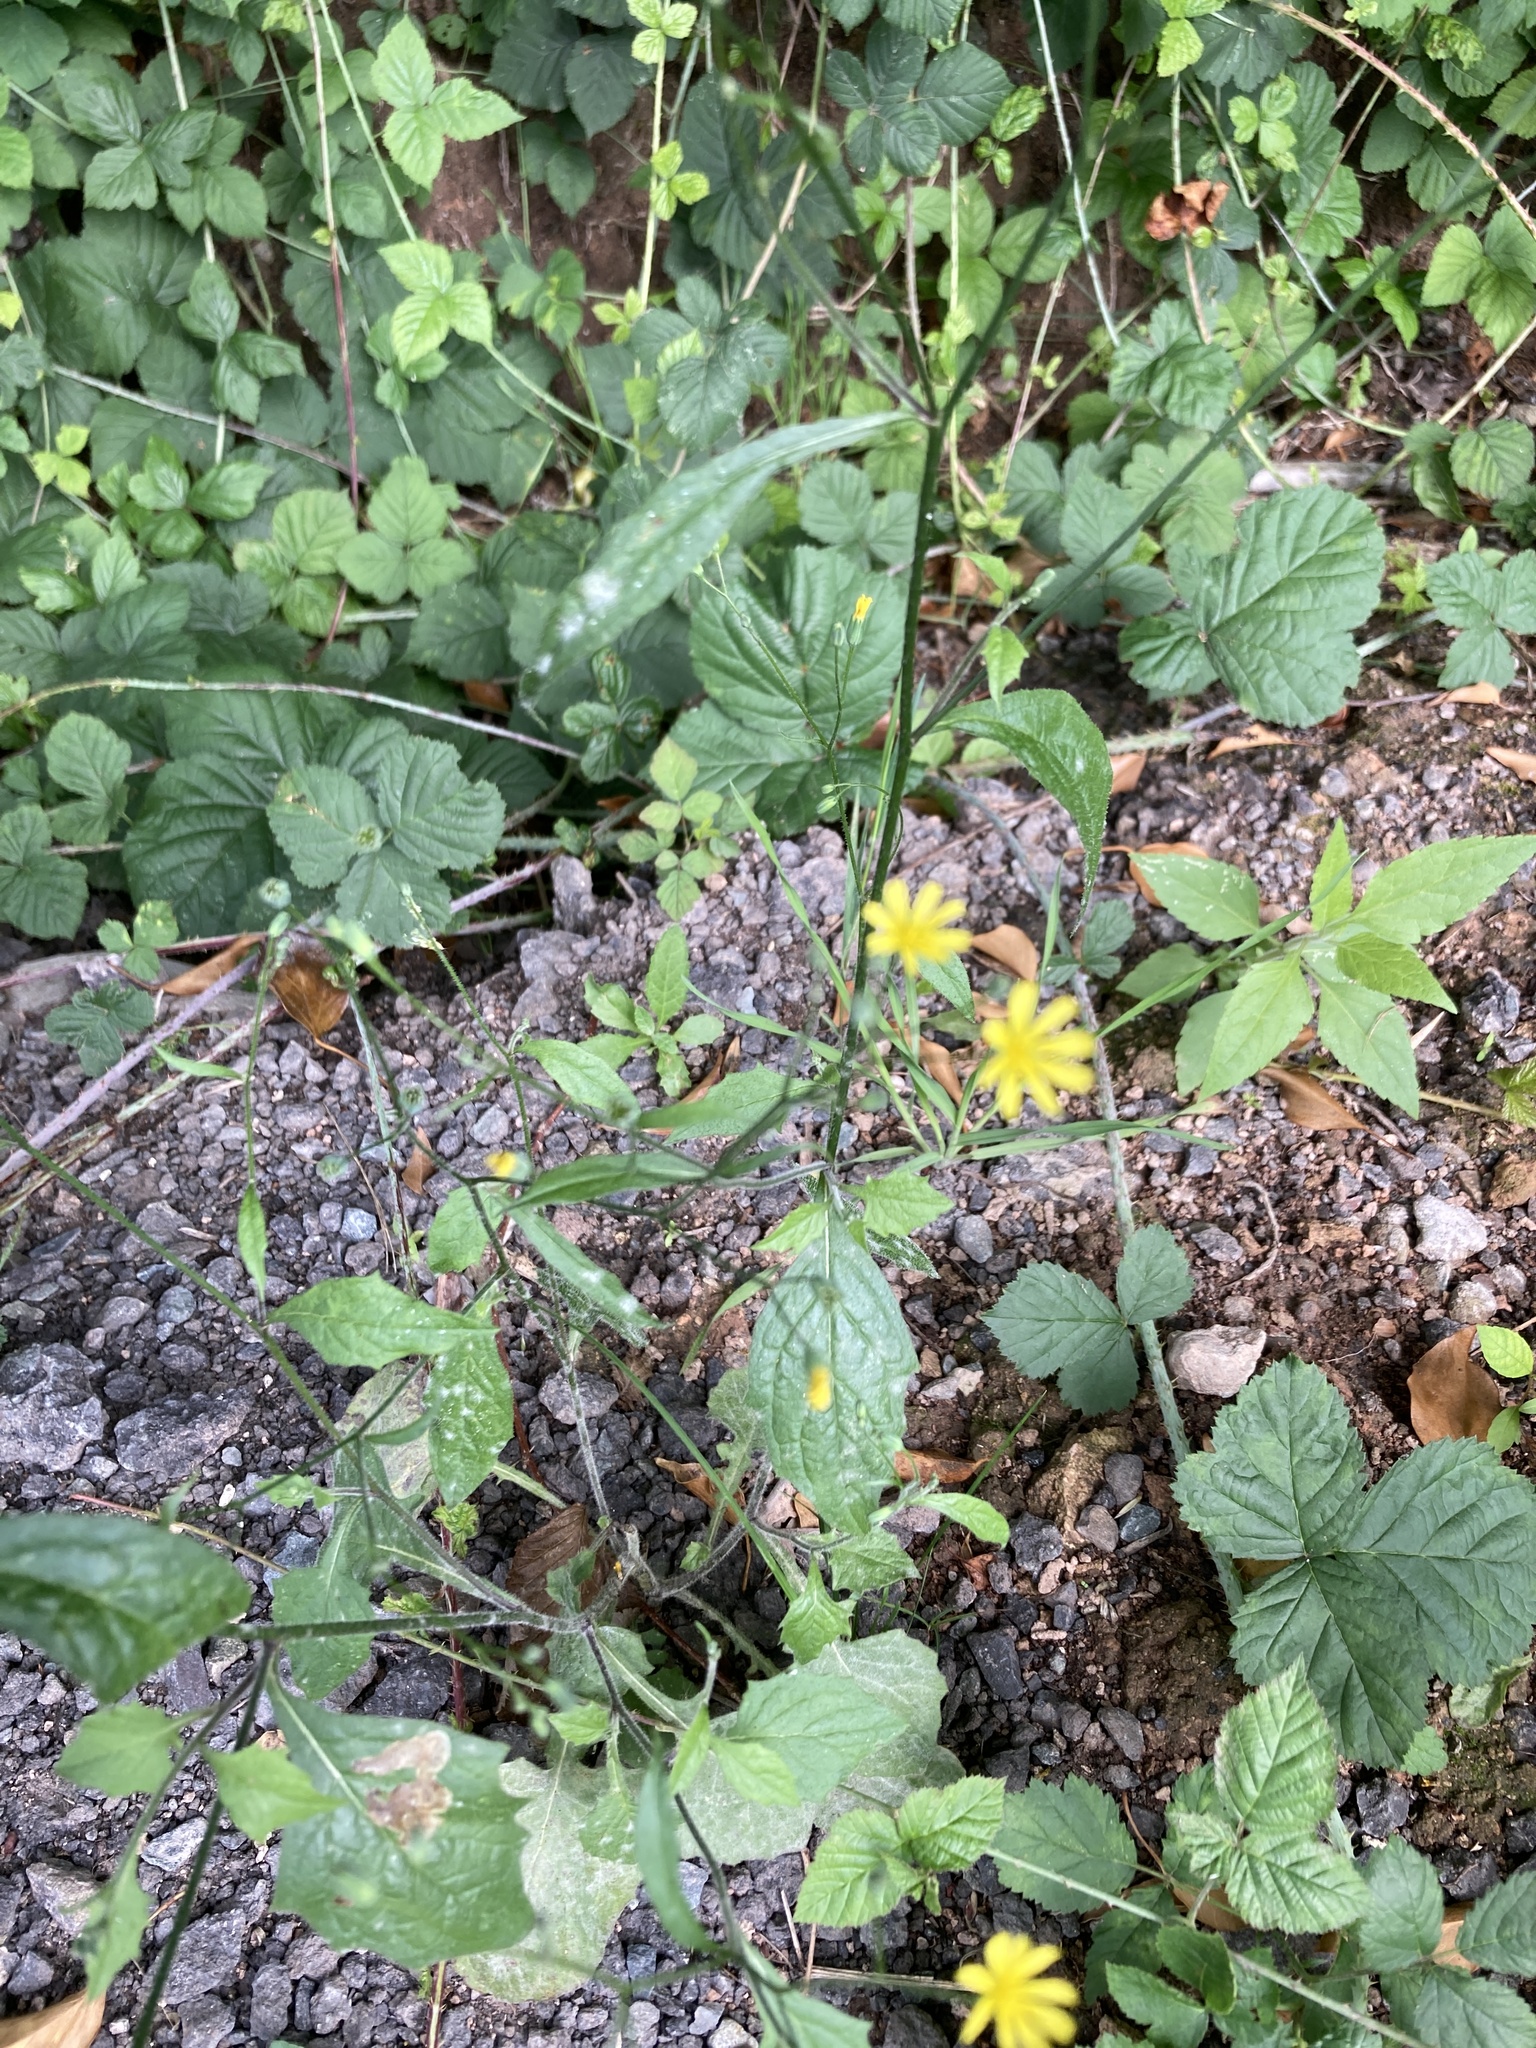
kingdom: Plantae
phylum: Tracheophyta
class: Magnoliopsida
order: Asterales
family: Asteraceae
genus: Lapsana
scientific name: Lapsana communis
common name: Nipplewort
